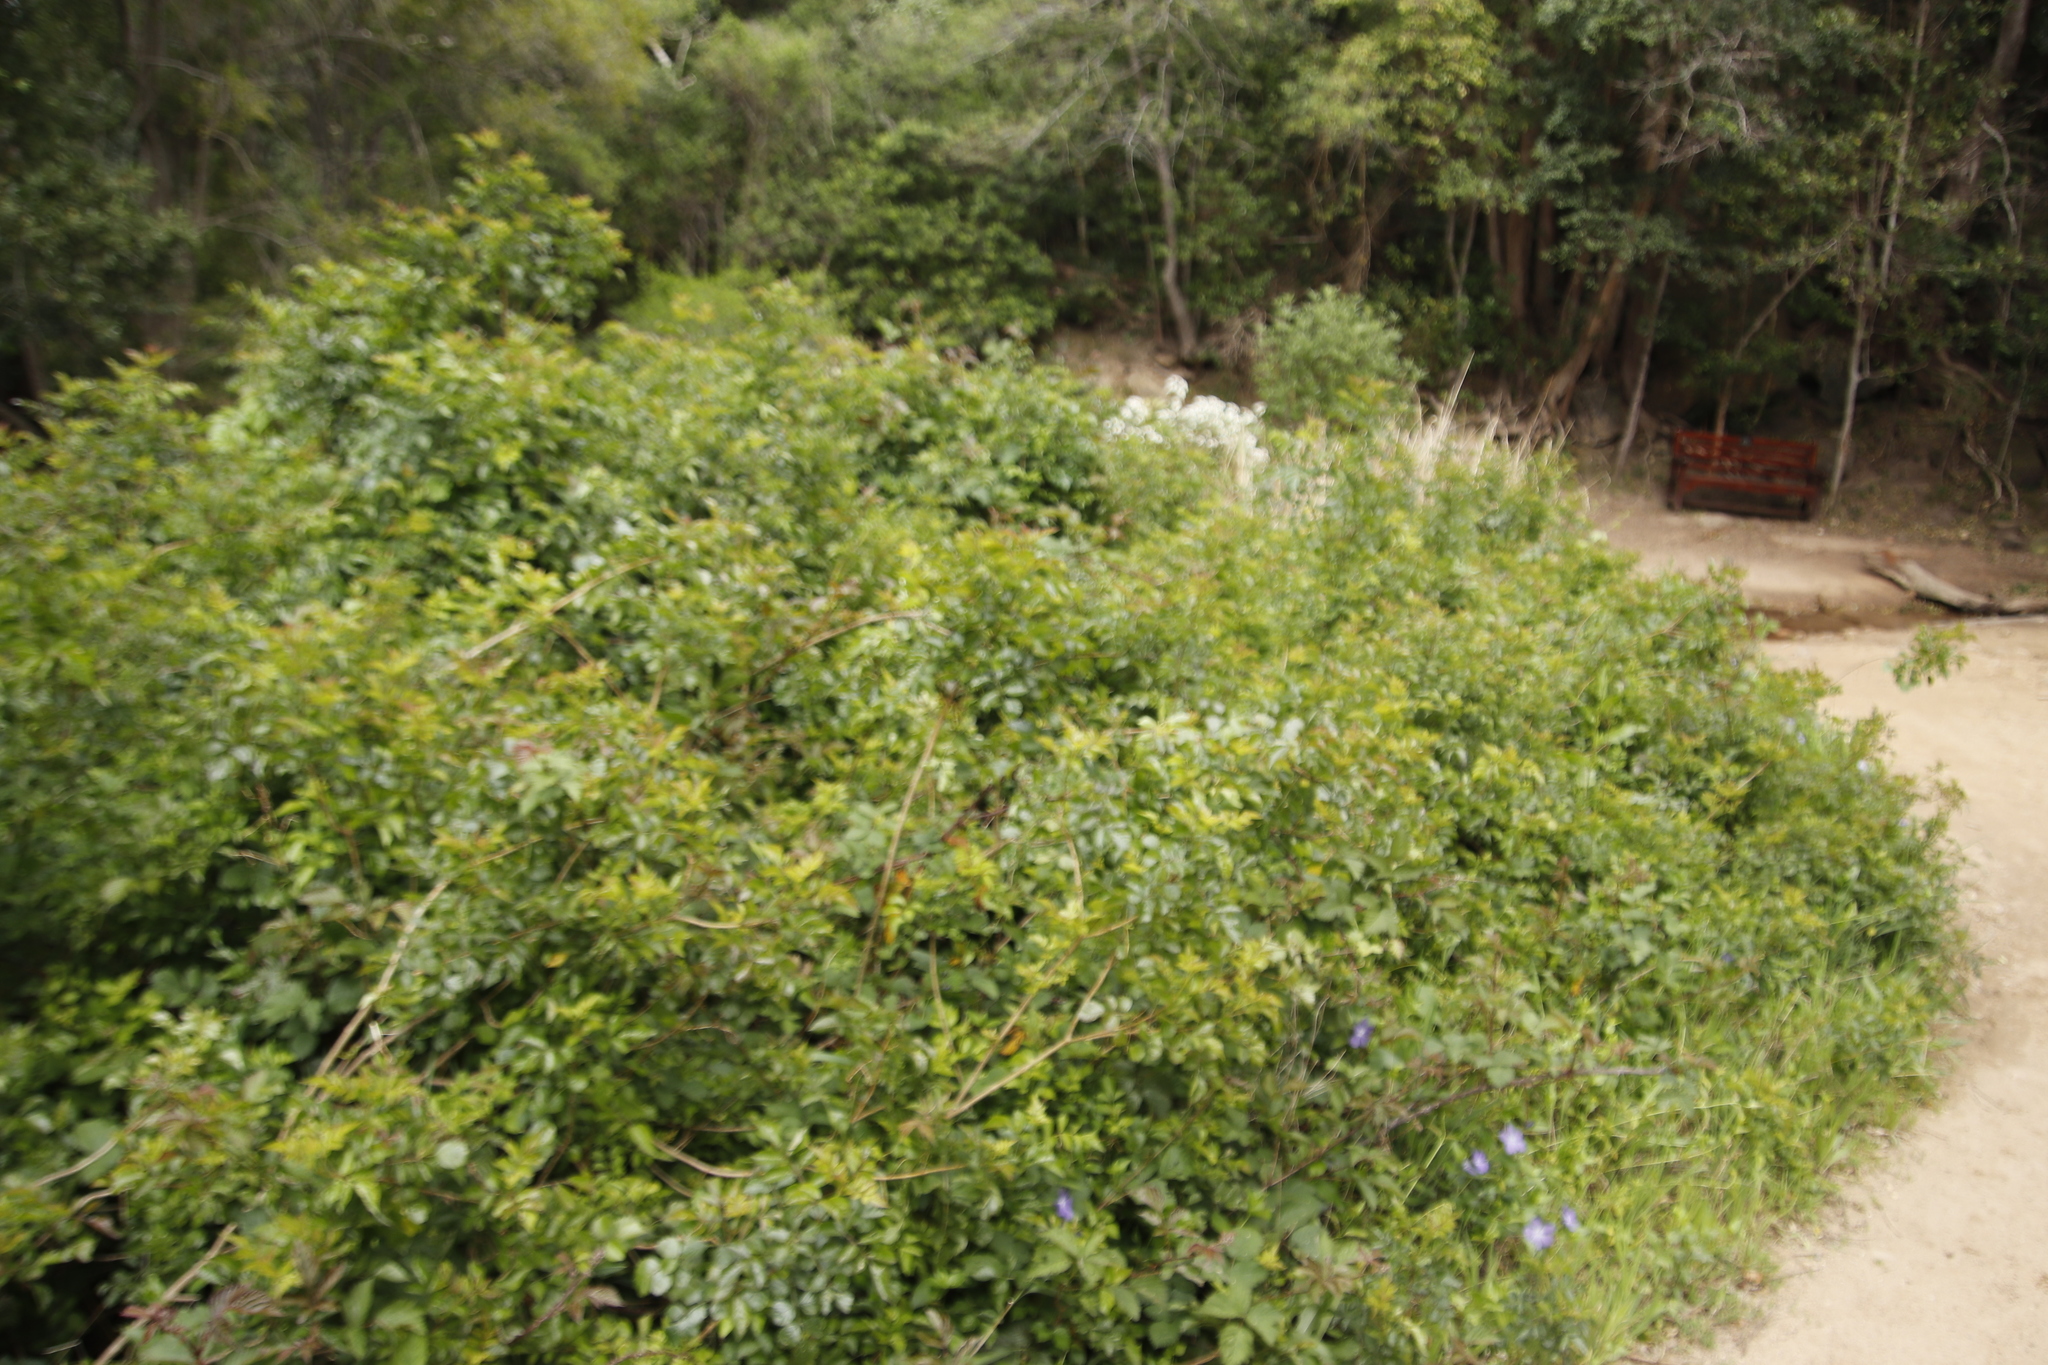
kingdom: Plantae
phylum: Tracheophyta
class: Magnoliopsida
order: Lamiales
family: Bignoniaceae
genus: Tecomaria
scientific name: Tecomaria capensis
